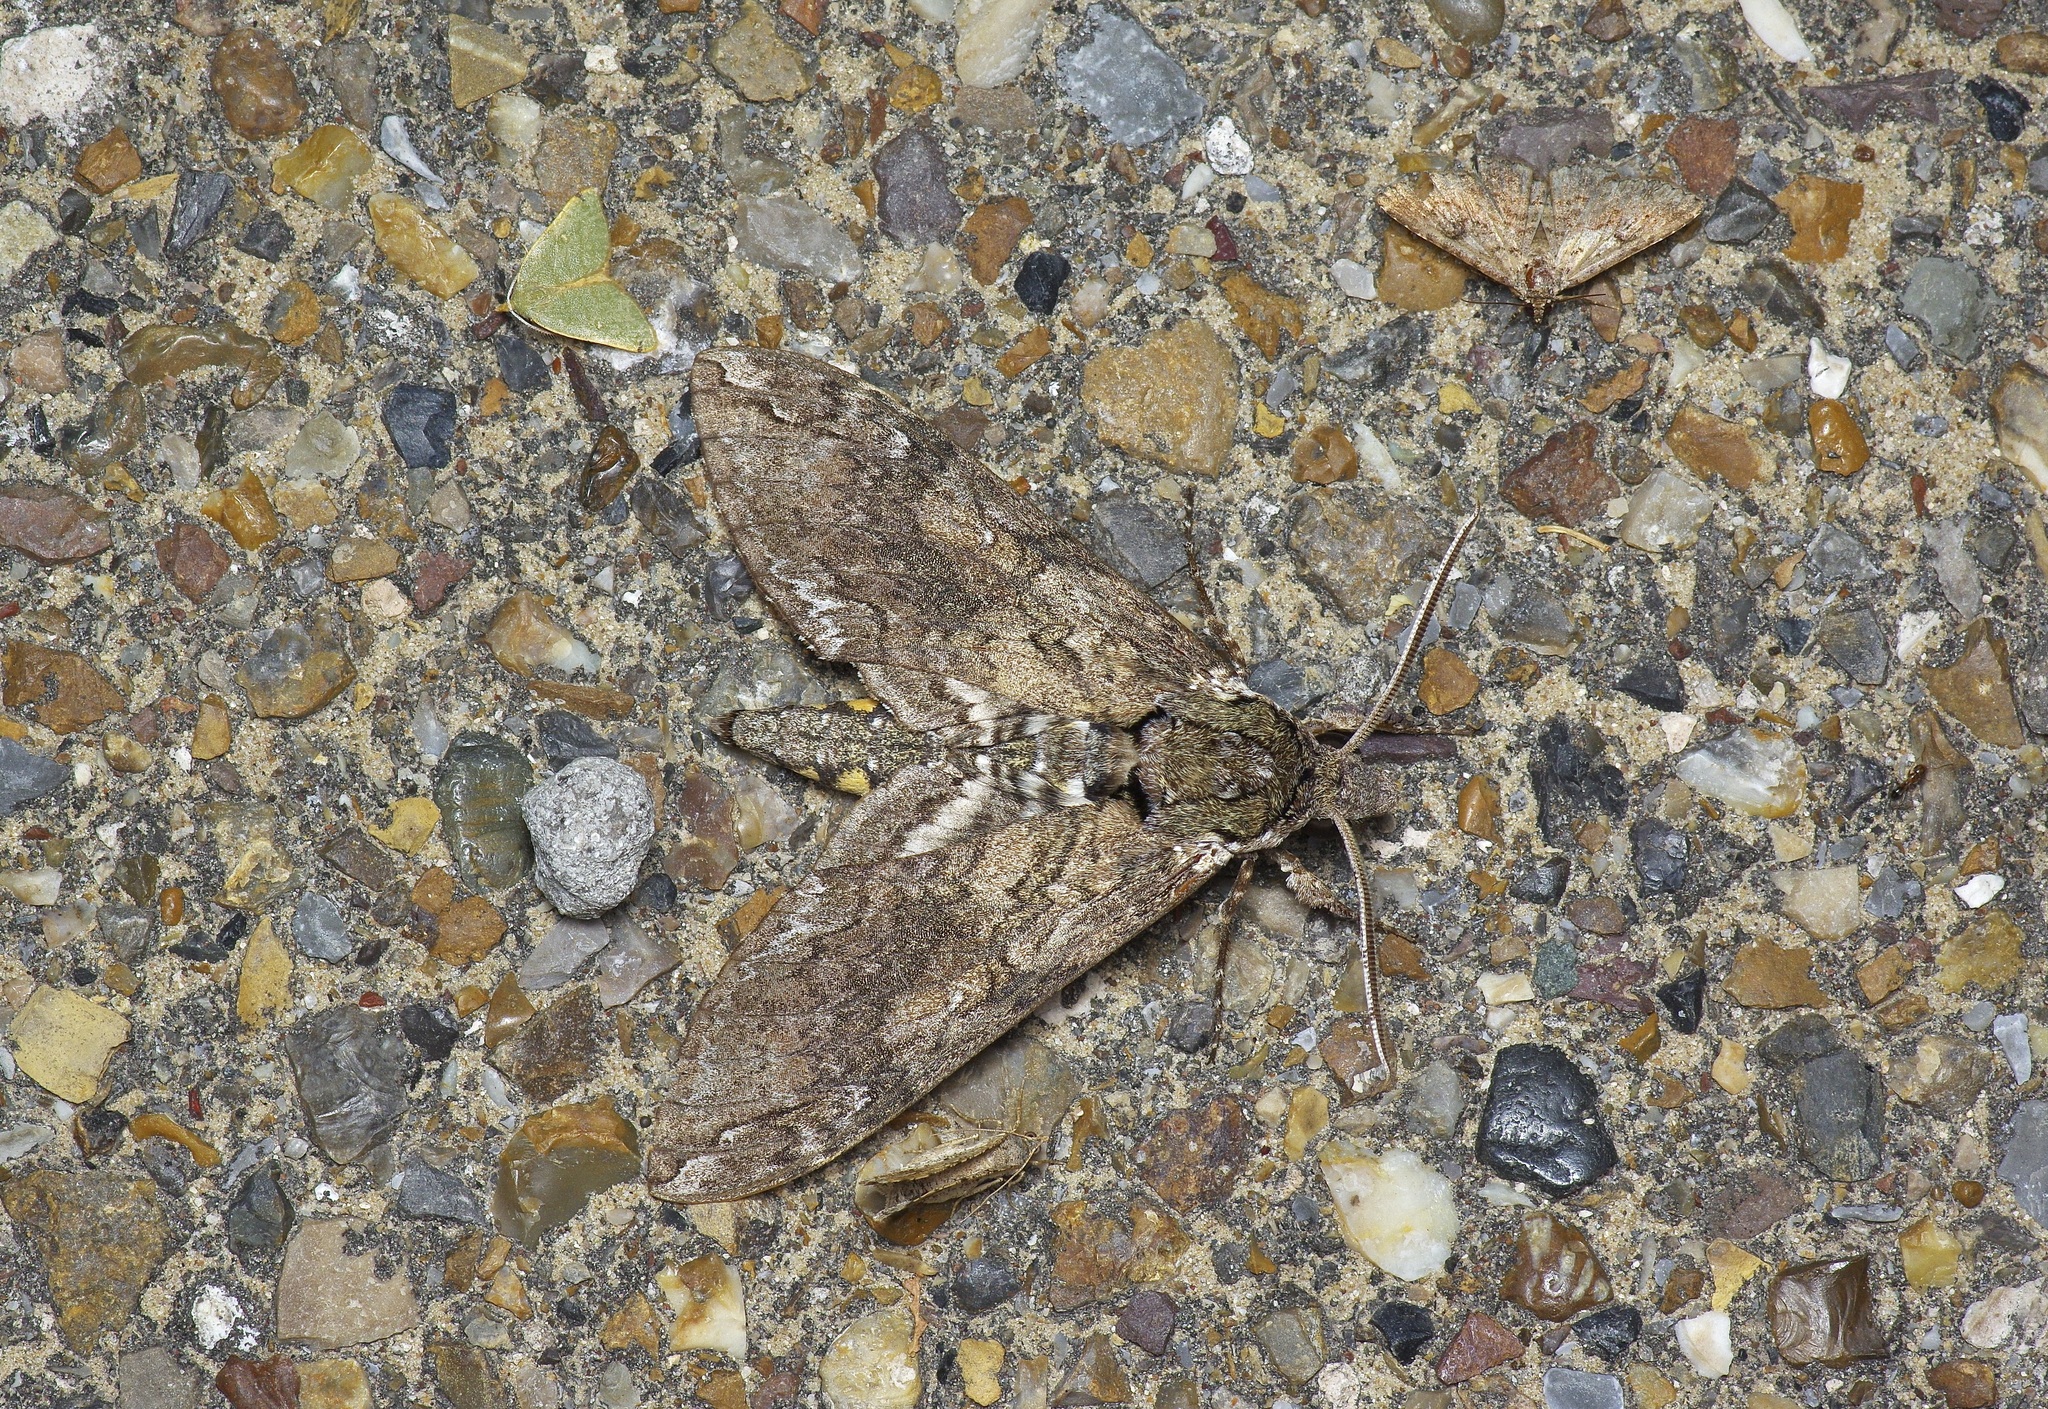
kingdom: Animalia
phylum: Arthropoda
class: Insecta
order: Lepidoptera
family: Sphingidae
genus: Manduca
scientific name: Manduca sexta
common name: Carolina sphinx
